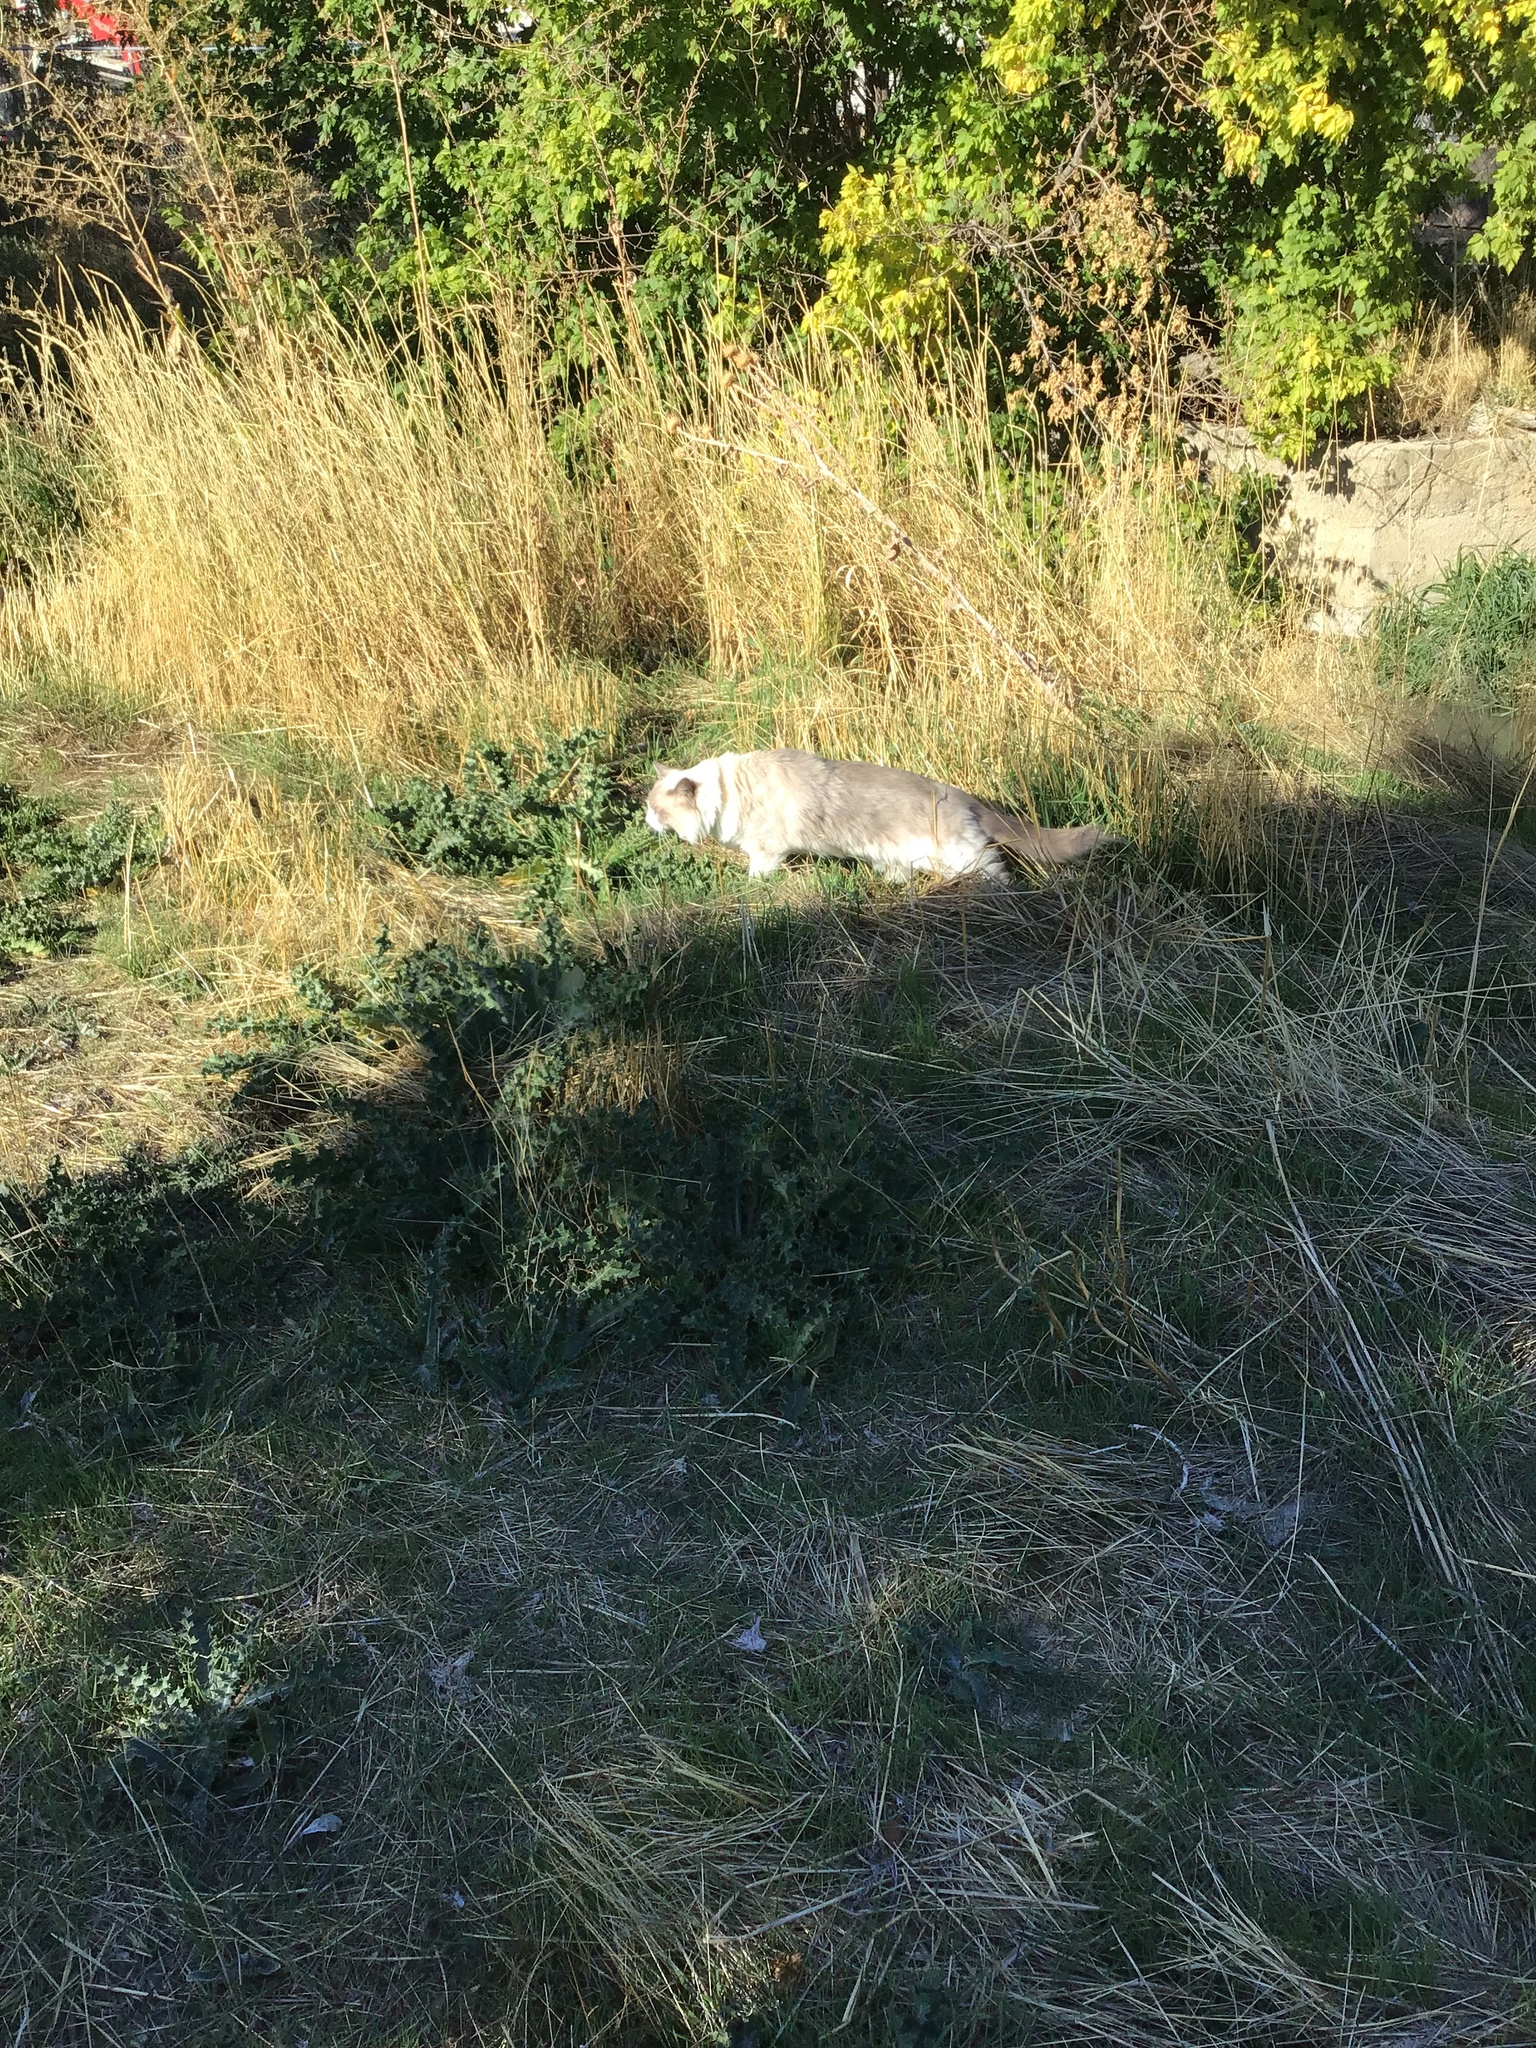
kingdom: Animalia
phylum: Chordata
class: Mammalia
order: Carnivora
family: Felidae
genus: Felis
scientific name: Felis catus
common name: Domestic cat
